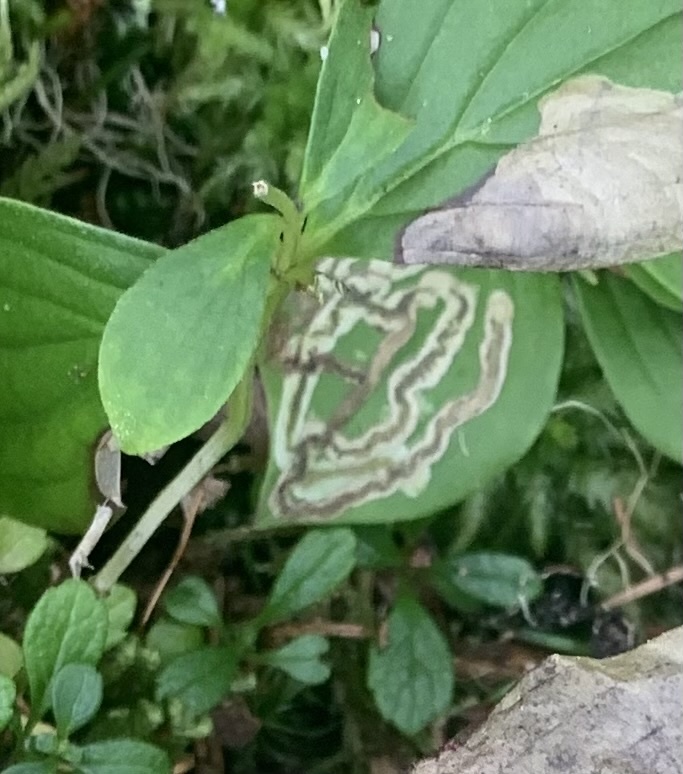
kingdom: Animalia
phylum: Arthropoda
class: Insecta
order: Diptera
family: Agromyzidae
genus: Phytomyza
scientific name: Phytomyza agromyzina
